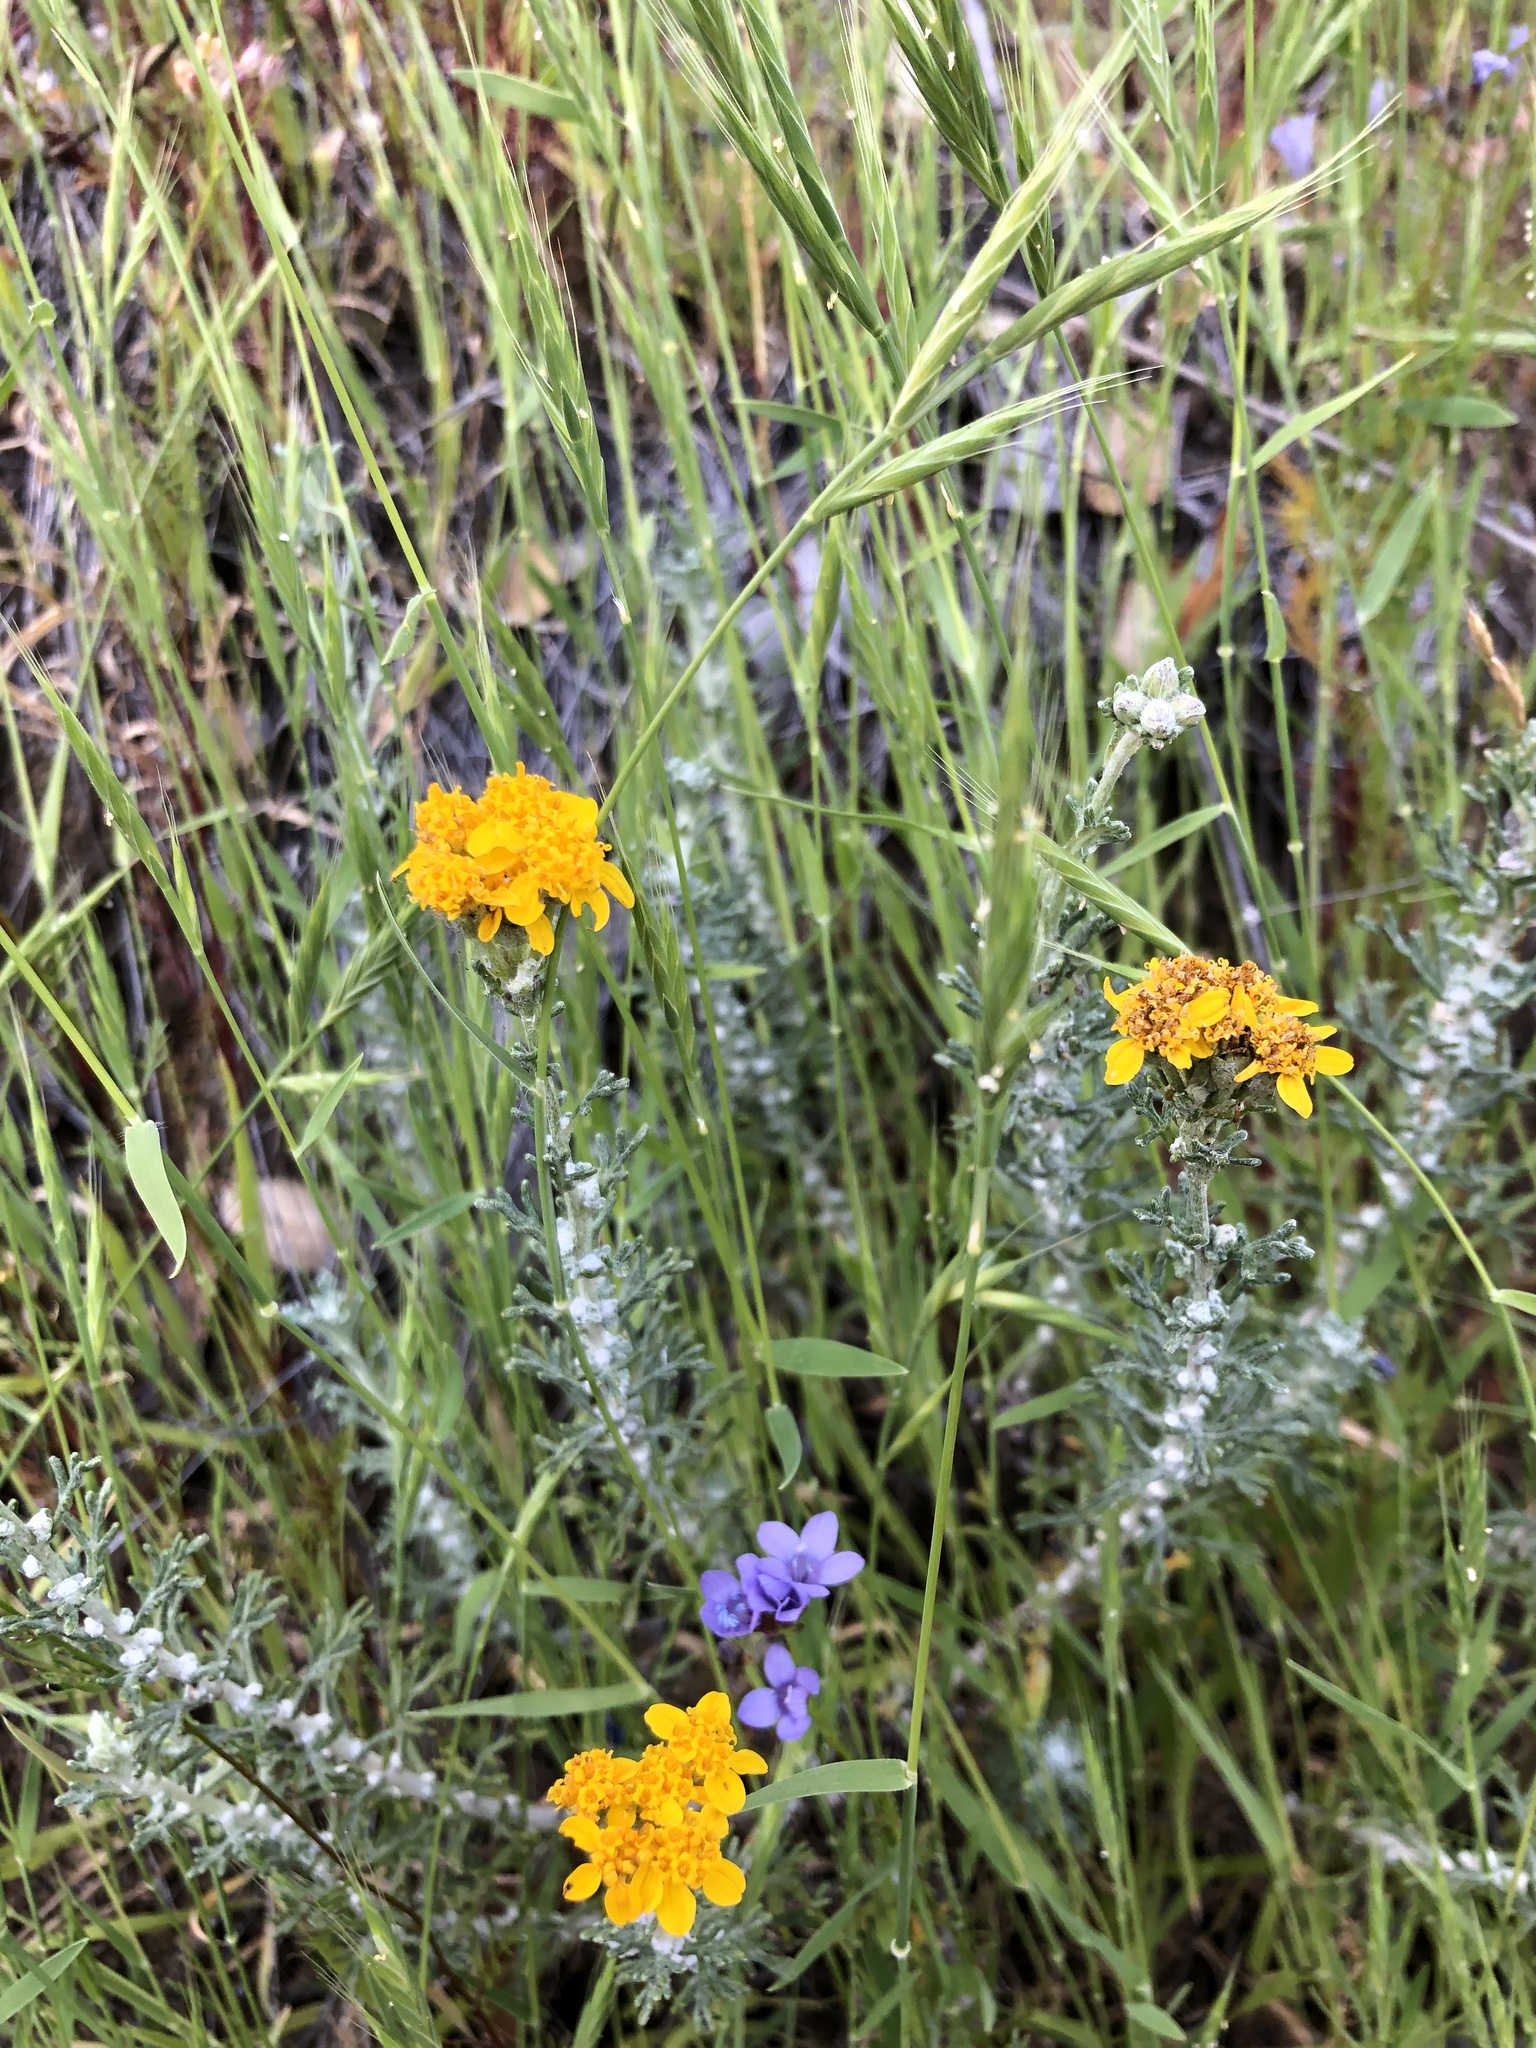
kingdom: Plantae
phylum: Tracheophyta
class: Magnoliopsida
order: Asterales
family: Asteraceae
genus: Eriophyllum
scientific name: Eriophyllum confertiflorum
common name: Golden-yarrow
